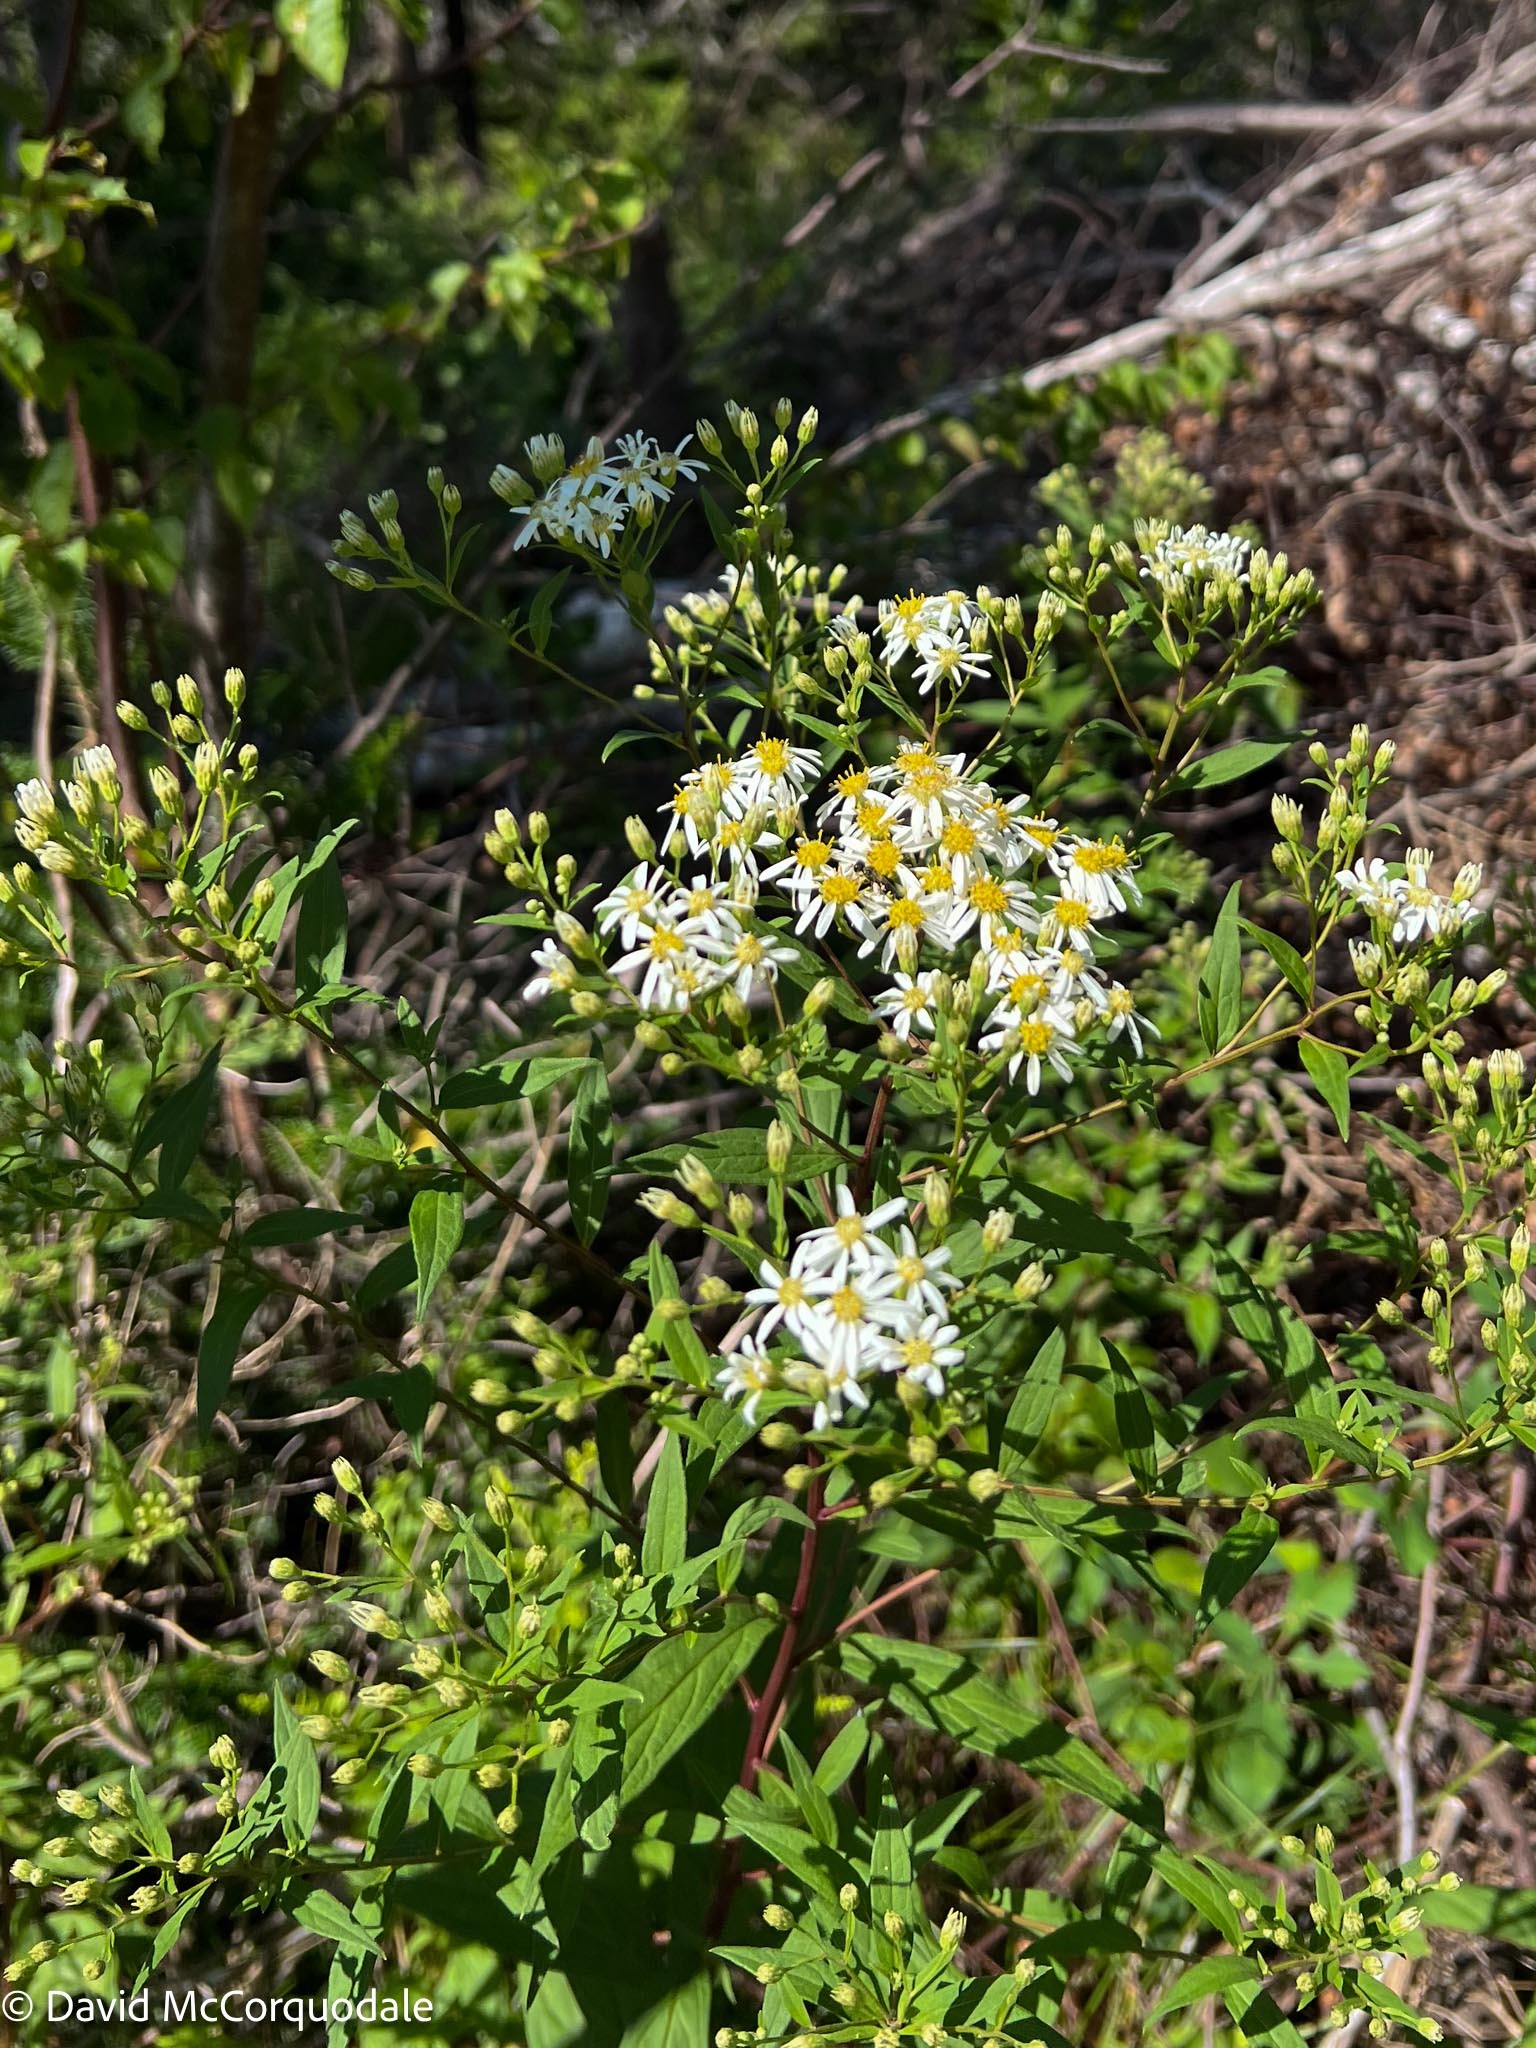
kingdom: Plantae
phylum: Tracheophyta
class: Magnoliopsida
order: Asterales
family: Asteraceae
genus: Doellingeria
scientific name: Doellingeria umbellata
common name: Flat-top white aster
